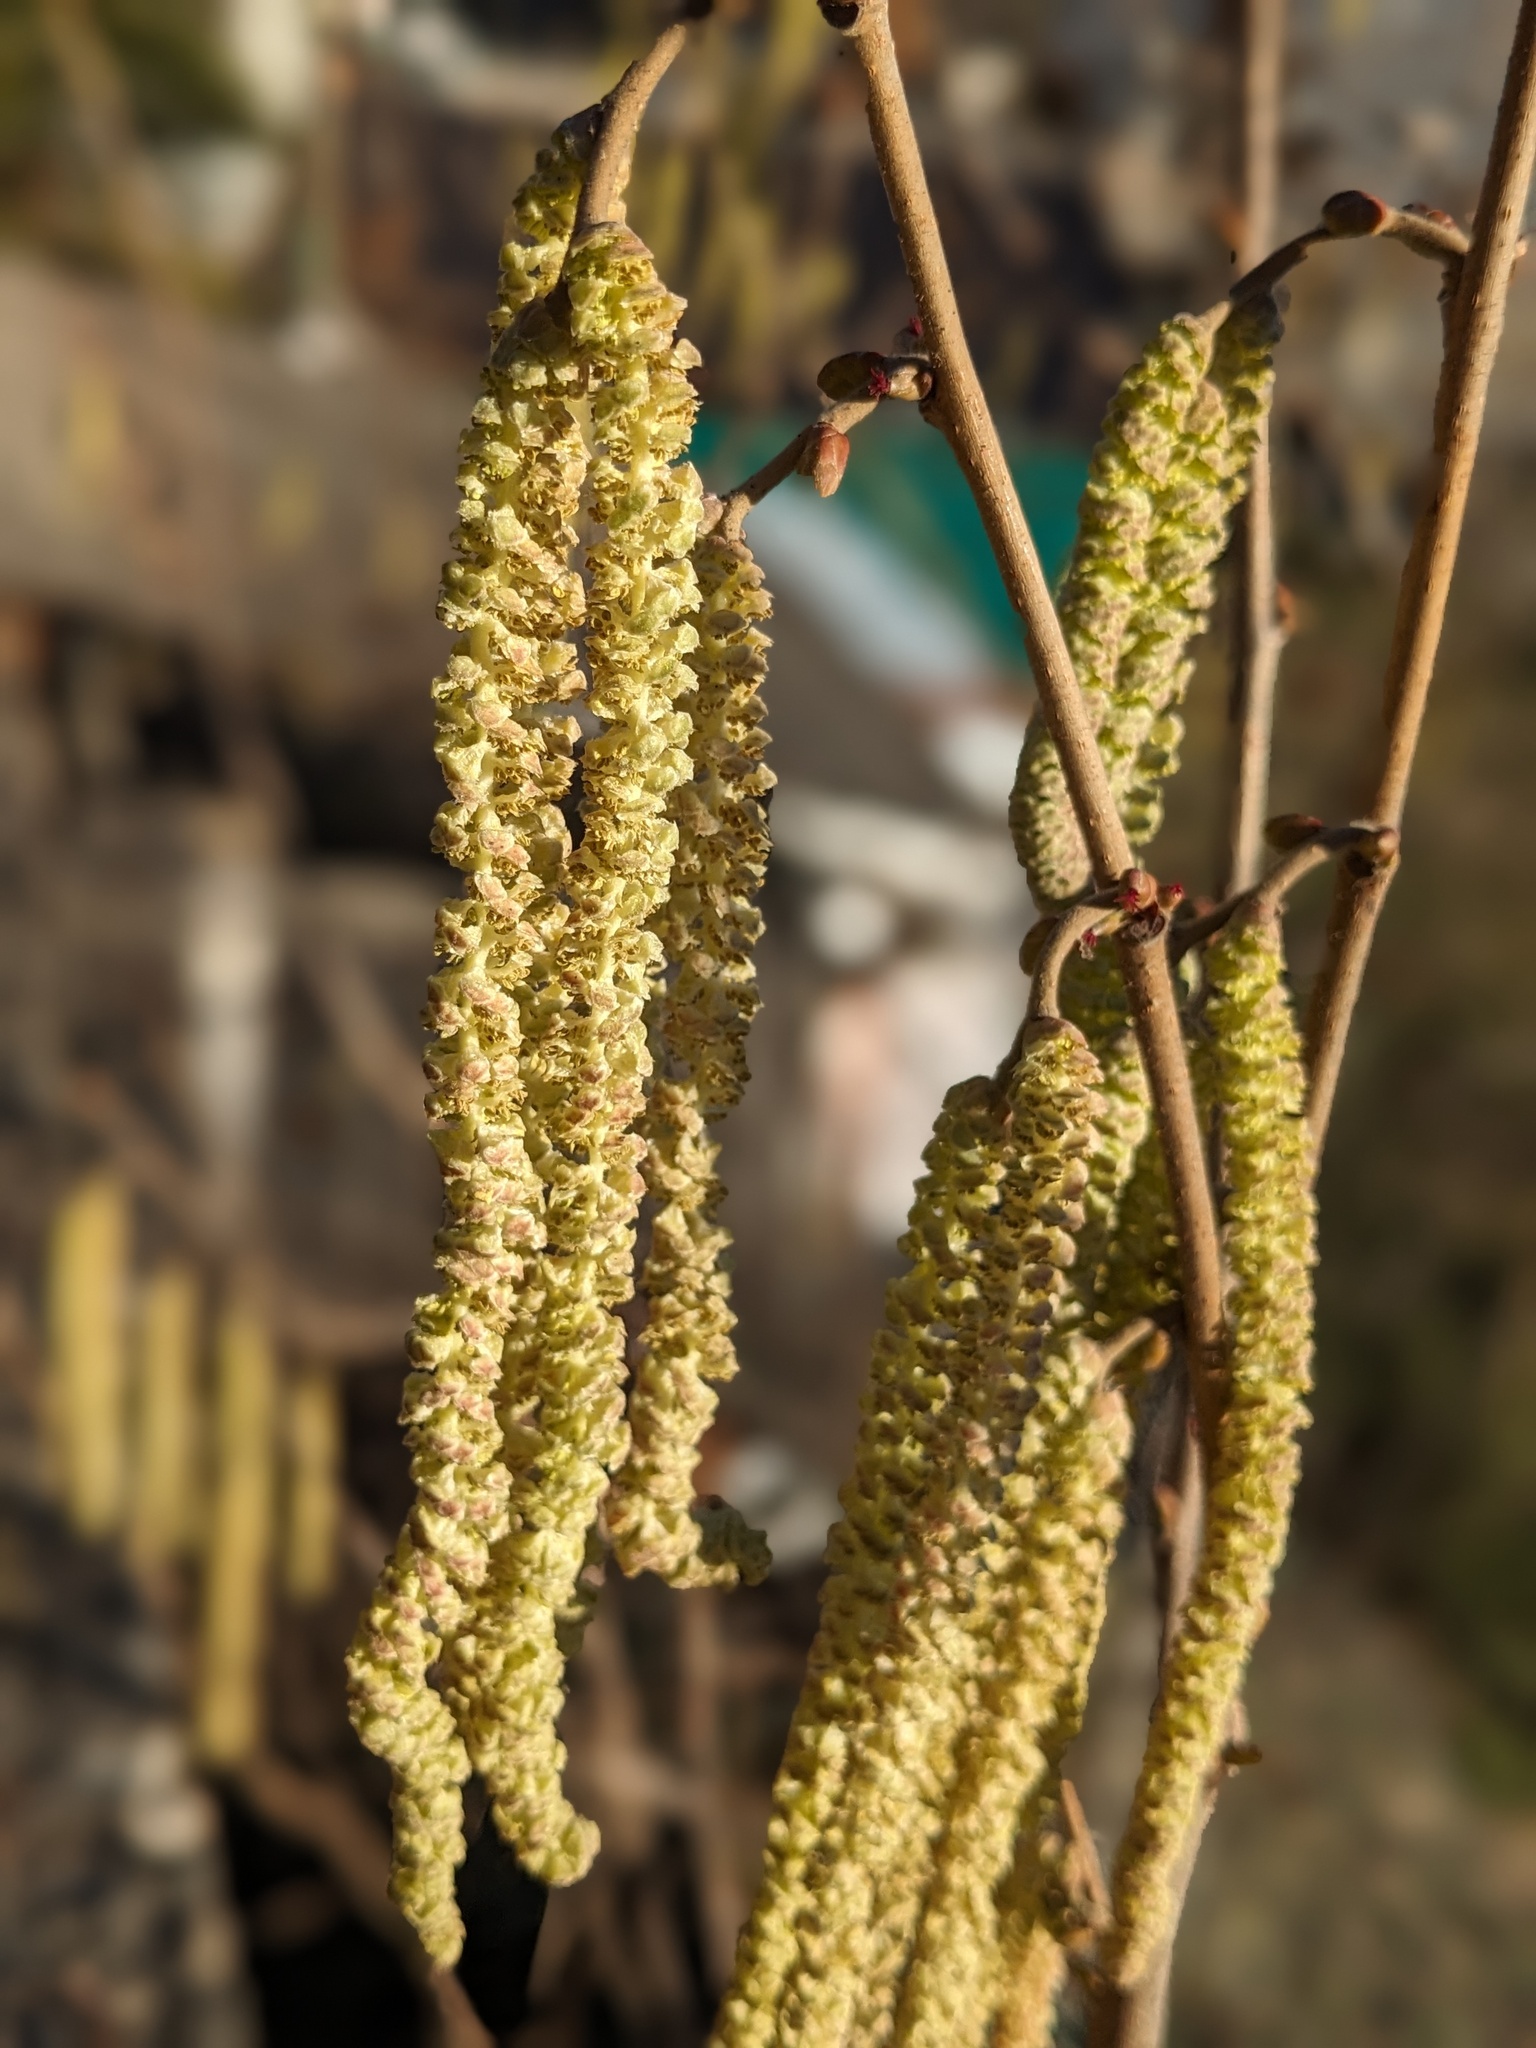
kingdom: Plantae
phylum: Tracheophyta
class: Magnoliopsida
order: Fagales
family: Betulaceae
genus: Corylus
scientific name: Corylus avellana
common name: European hazel
